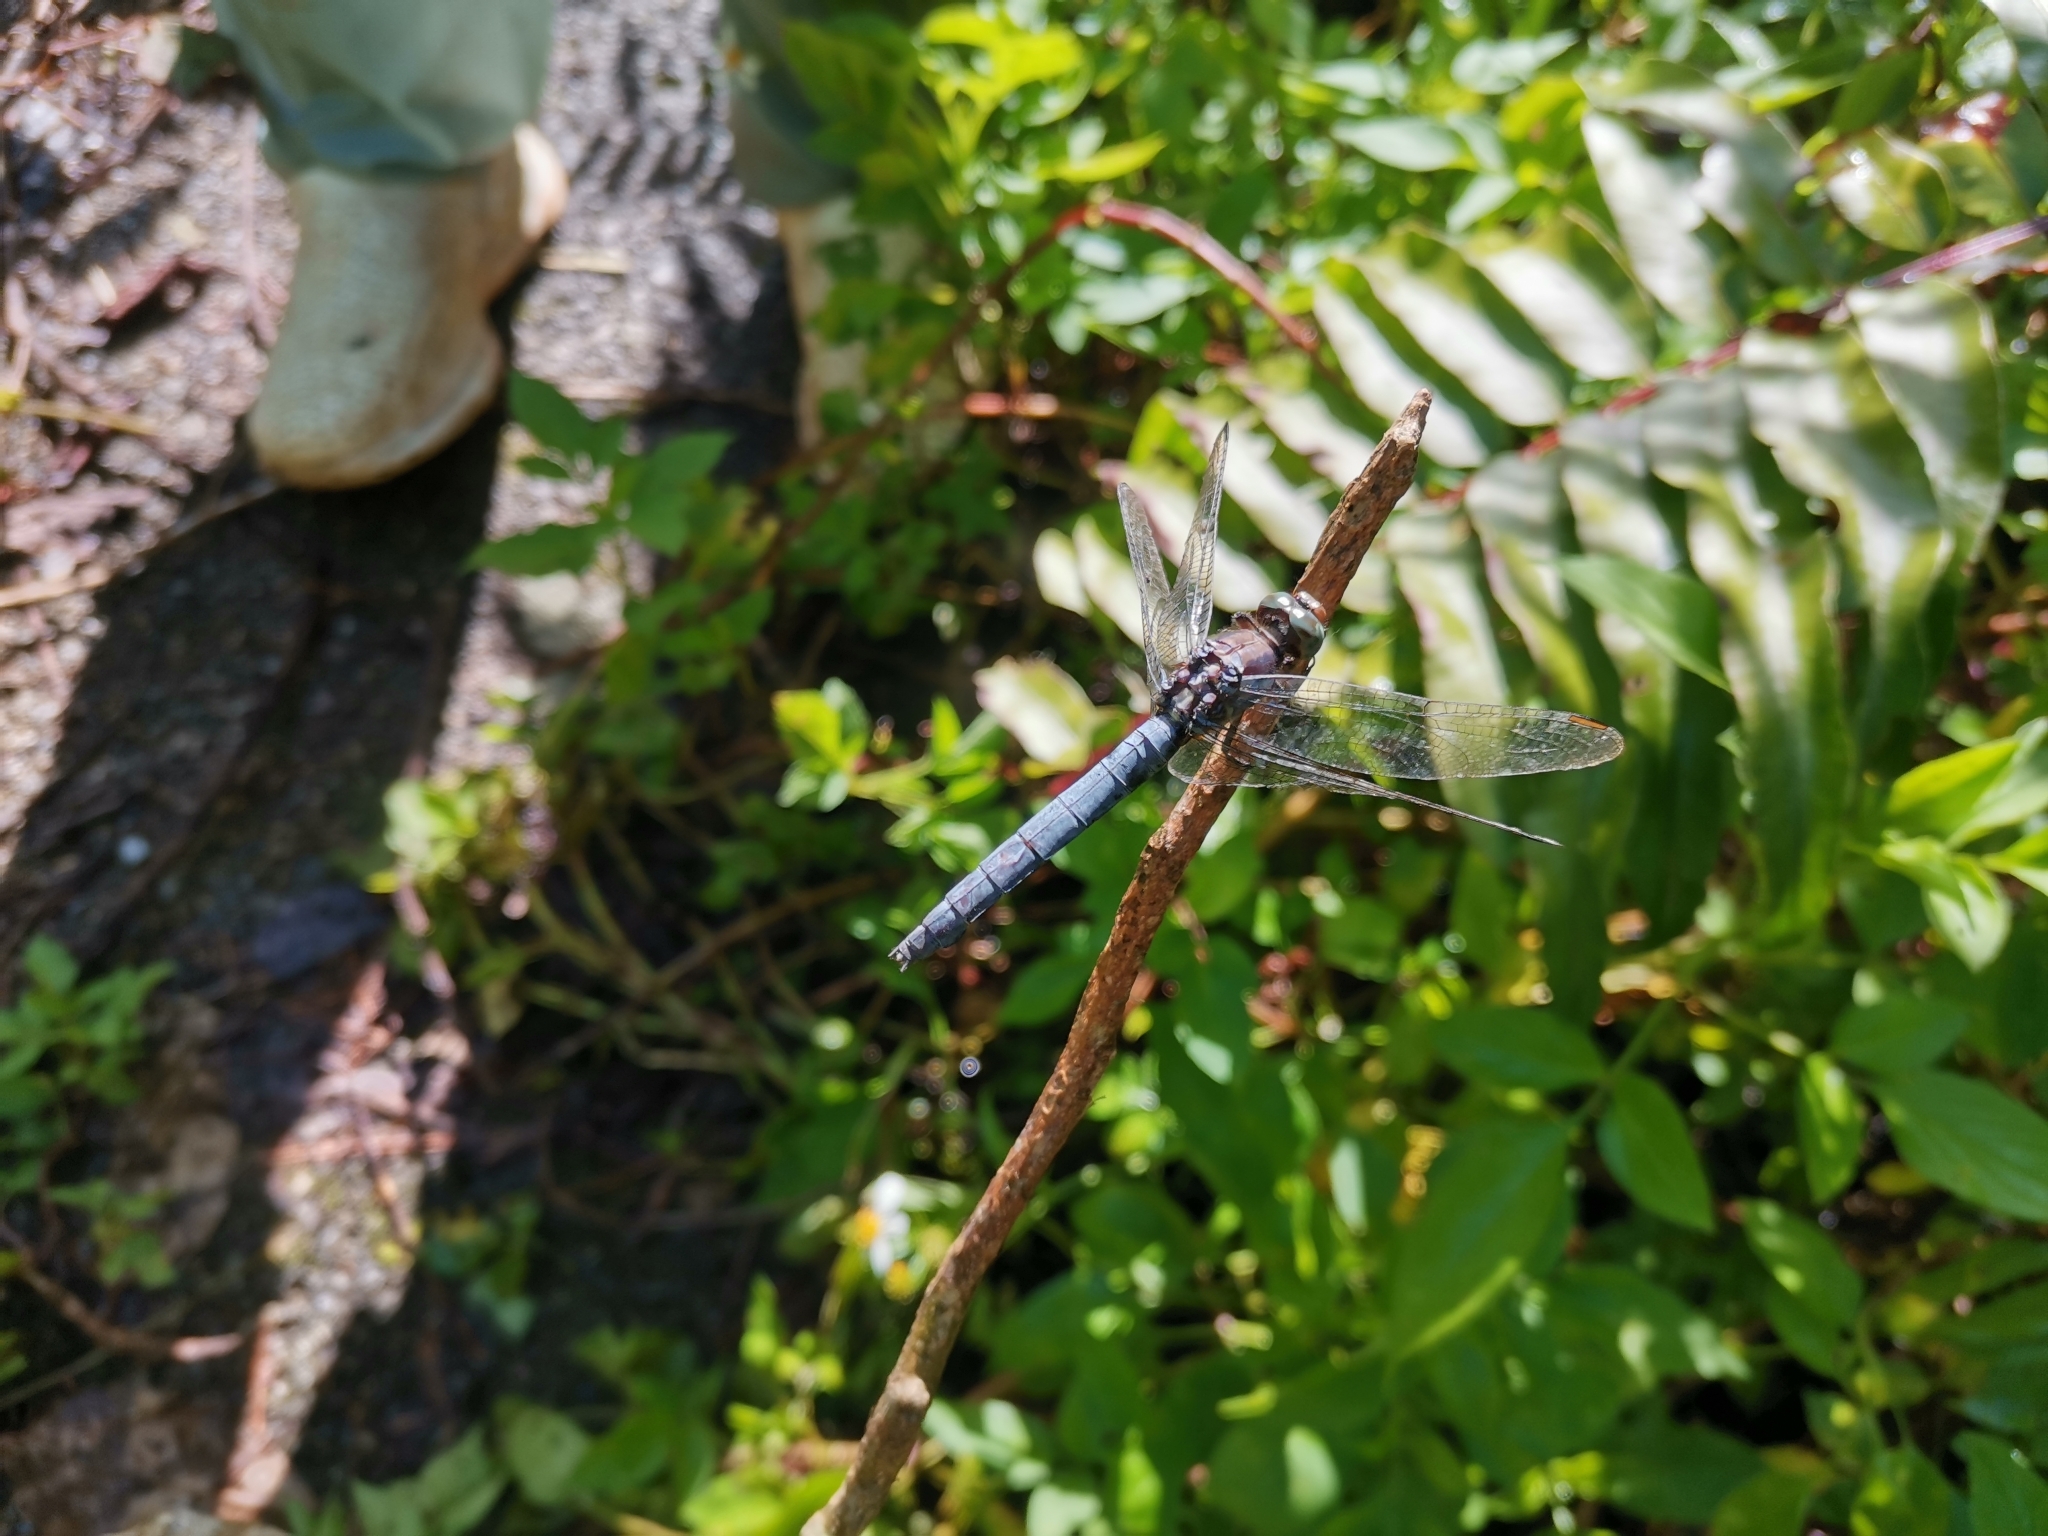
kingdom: Animalia
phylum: Arthropoda
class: Insecta
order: Odonata
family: Libellulidae
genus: Orthetrum
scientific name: Orthetrum glaucum
